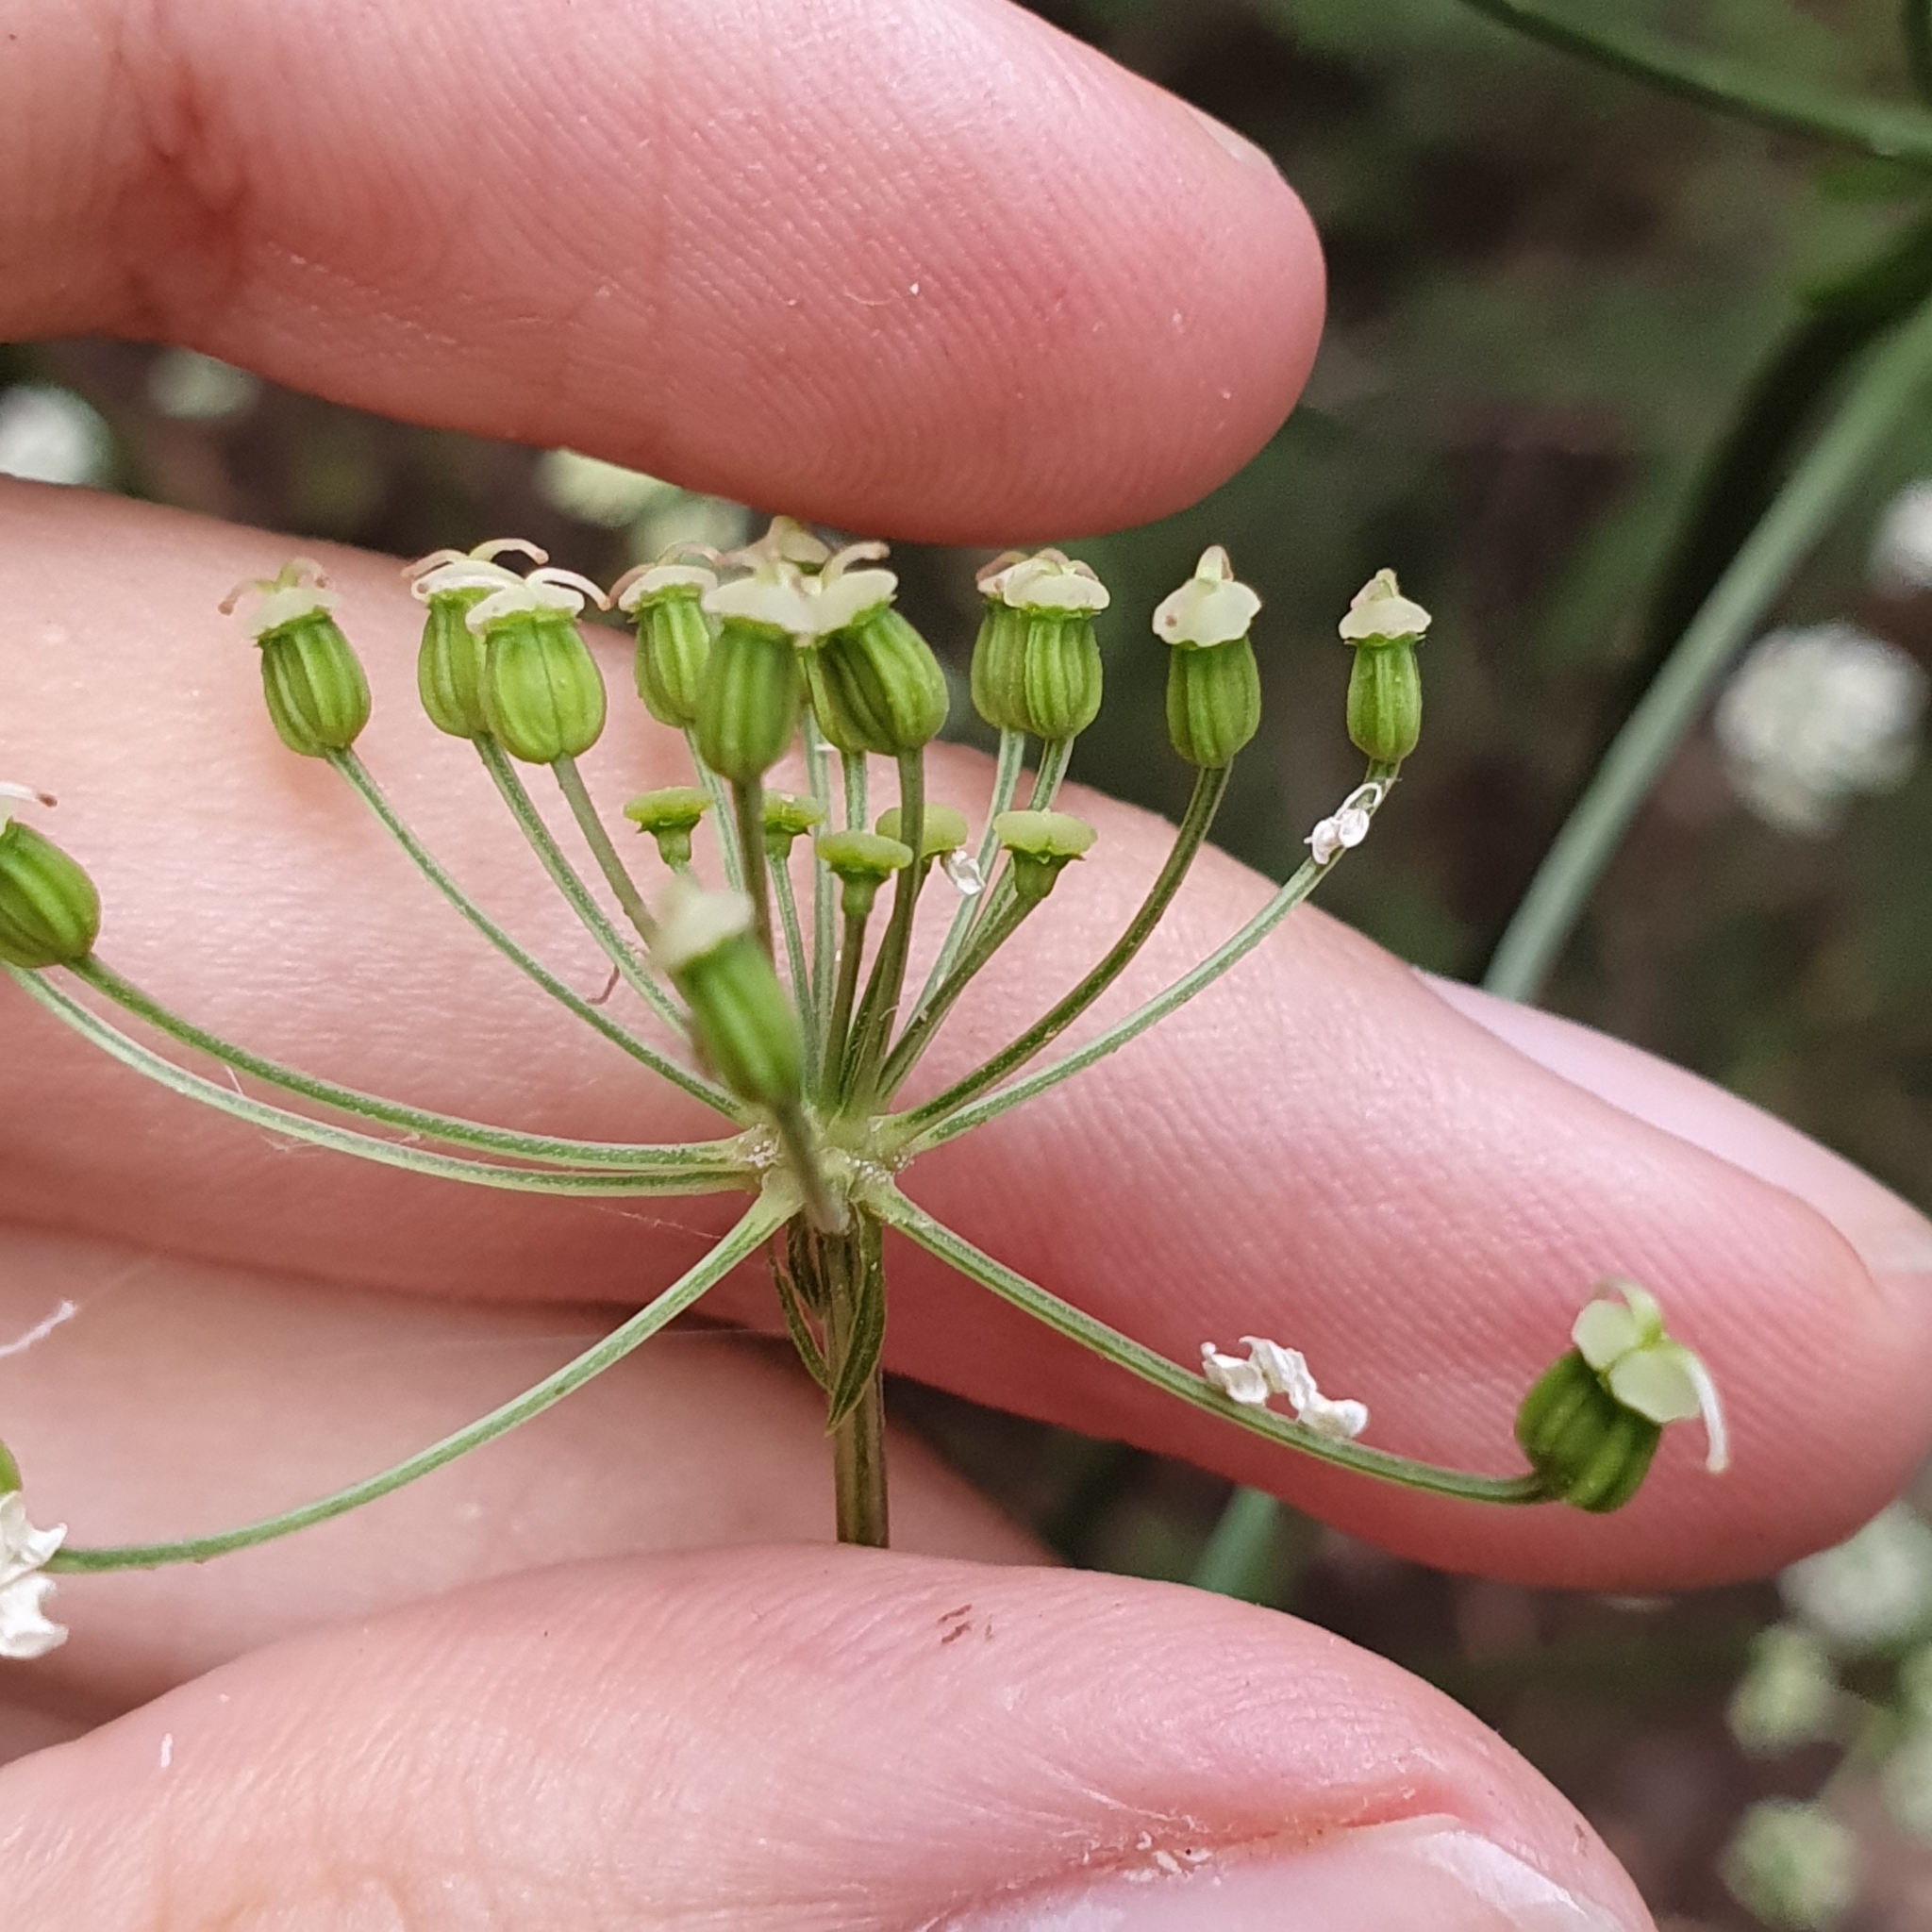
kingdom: Plantae
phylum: Tracheophyta
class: Magnoliopsida
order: Apiales
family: Apiaceae
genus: Physospermum
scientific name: Physospermum verticillatum
